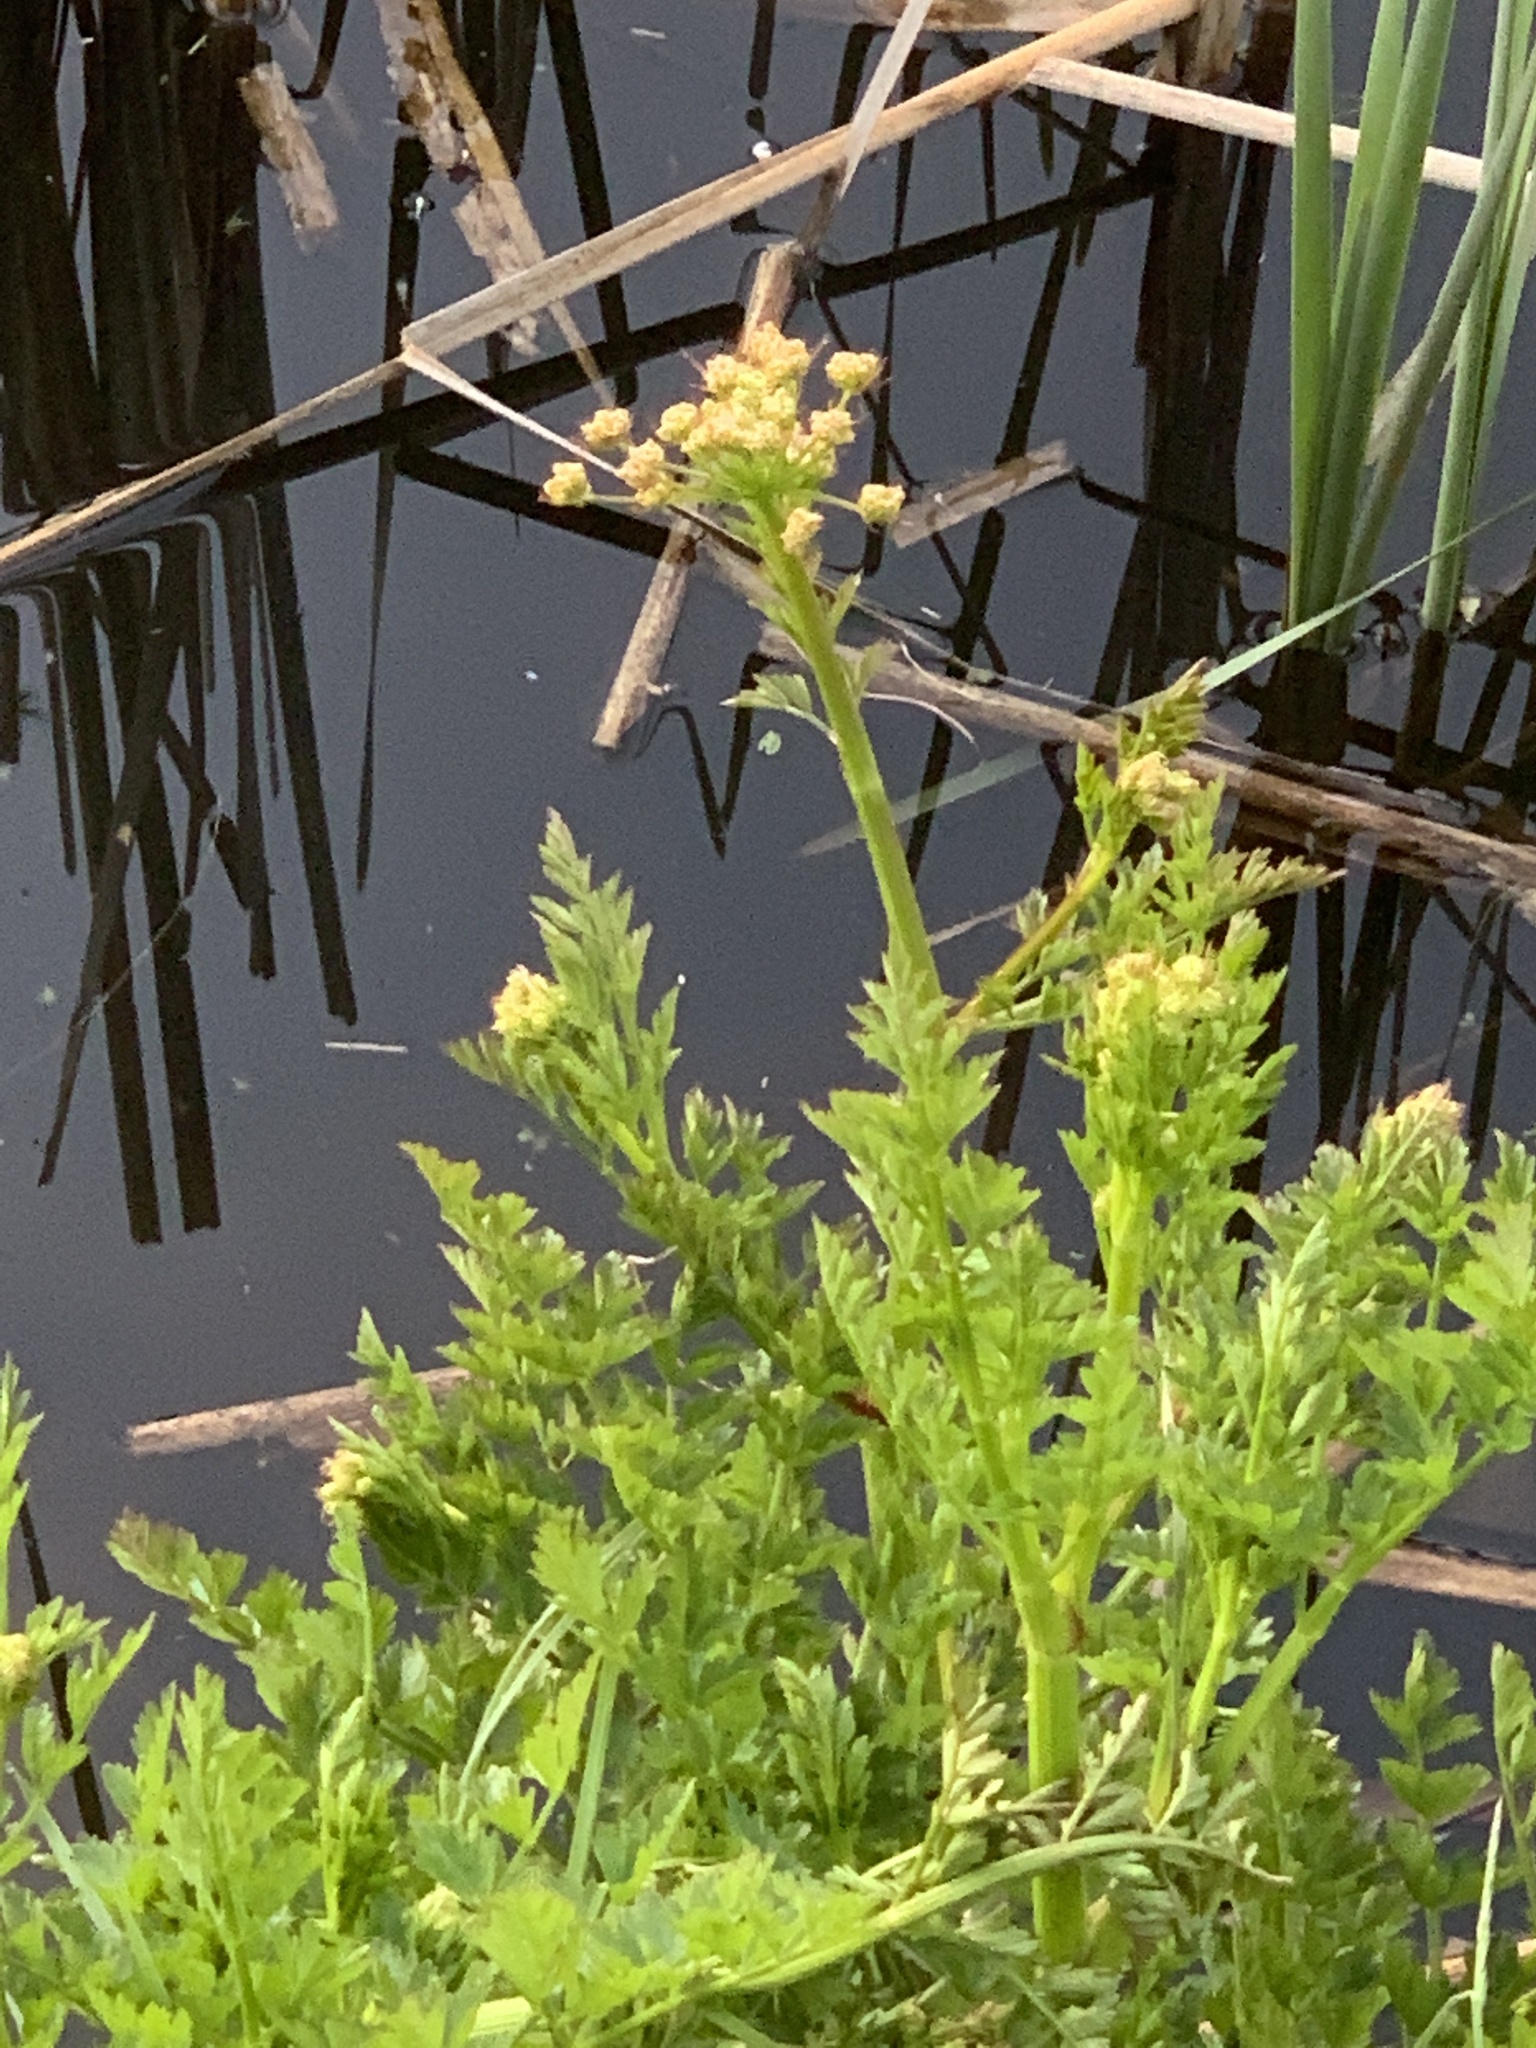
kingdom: Plantae
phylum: Tracheophyta
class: Magnoliopsida
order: Apiales
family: Apiaceae
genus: Oenanthe
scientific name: Oenanthe crocata
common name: Hemlock water-dropwort
